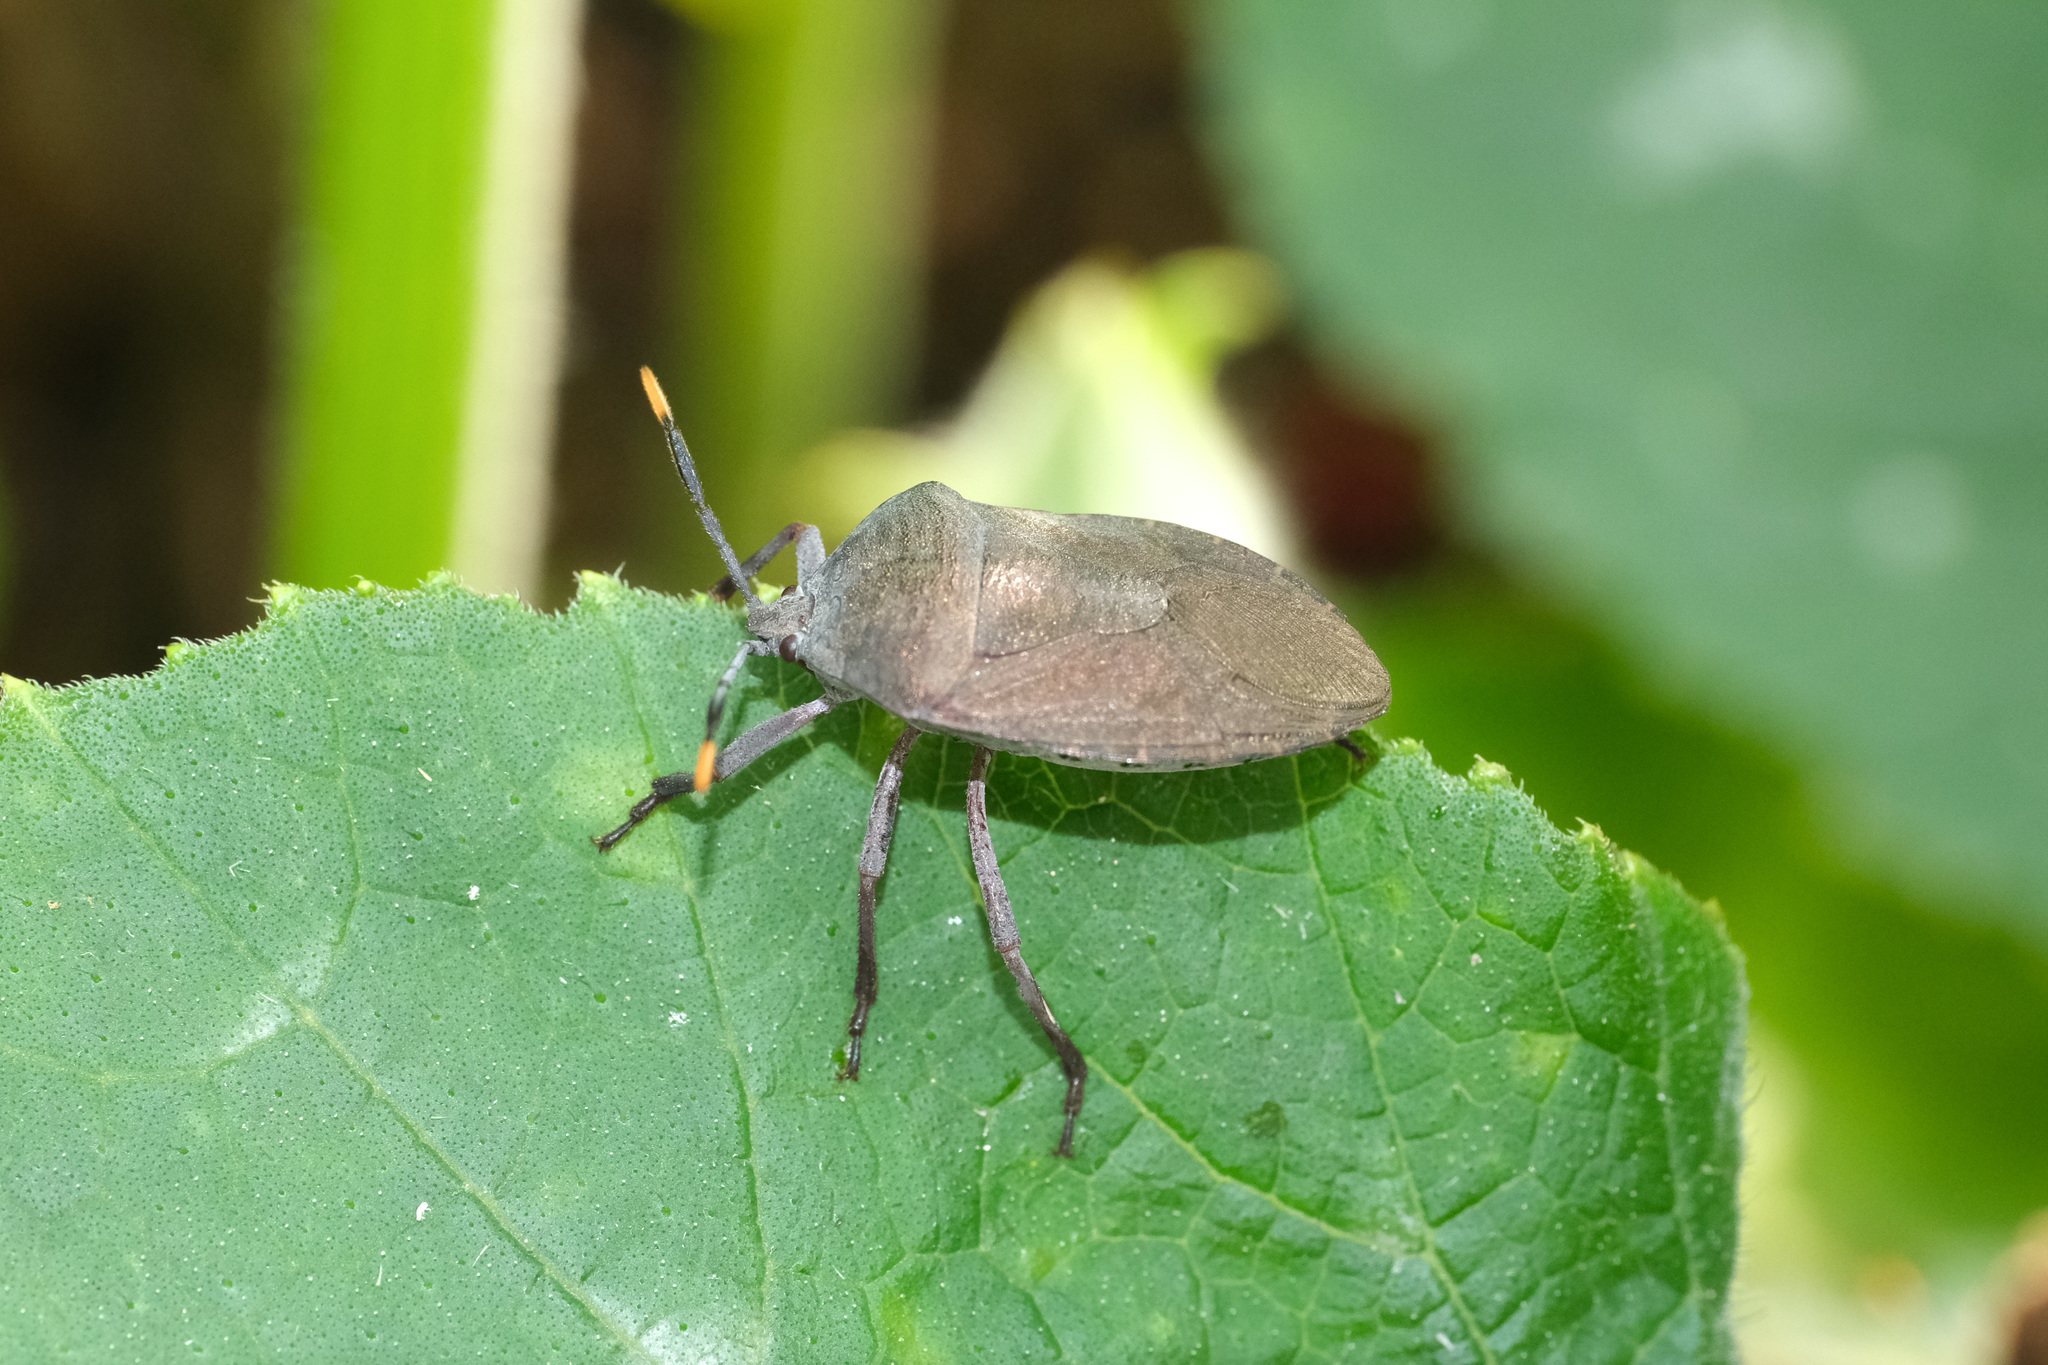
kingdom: Animalia
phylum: Arthropoda
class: Insecta
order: Hemiptera
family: Dinidoridae
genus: Coridius
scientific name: Coridius chinensis
